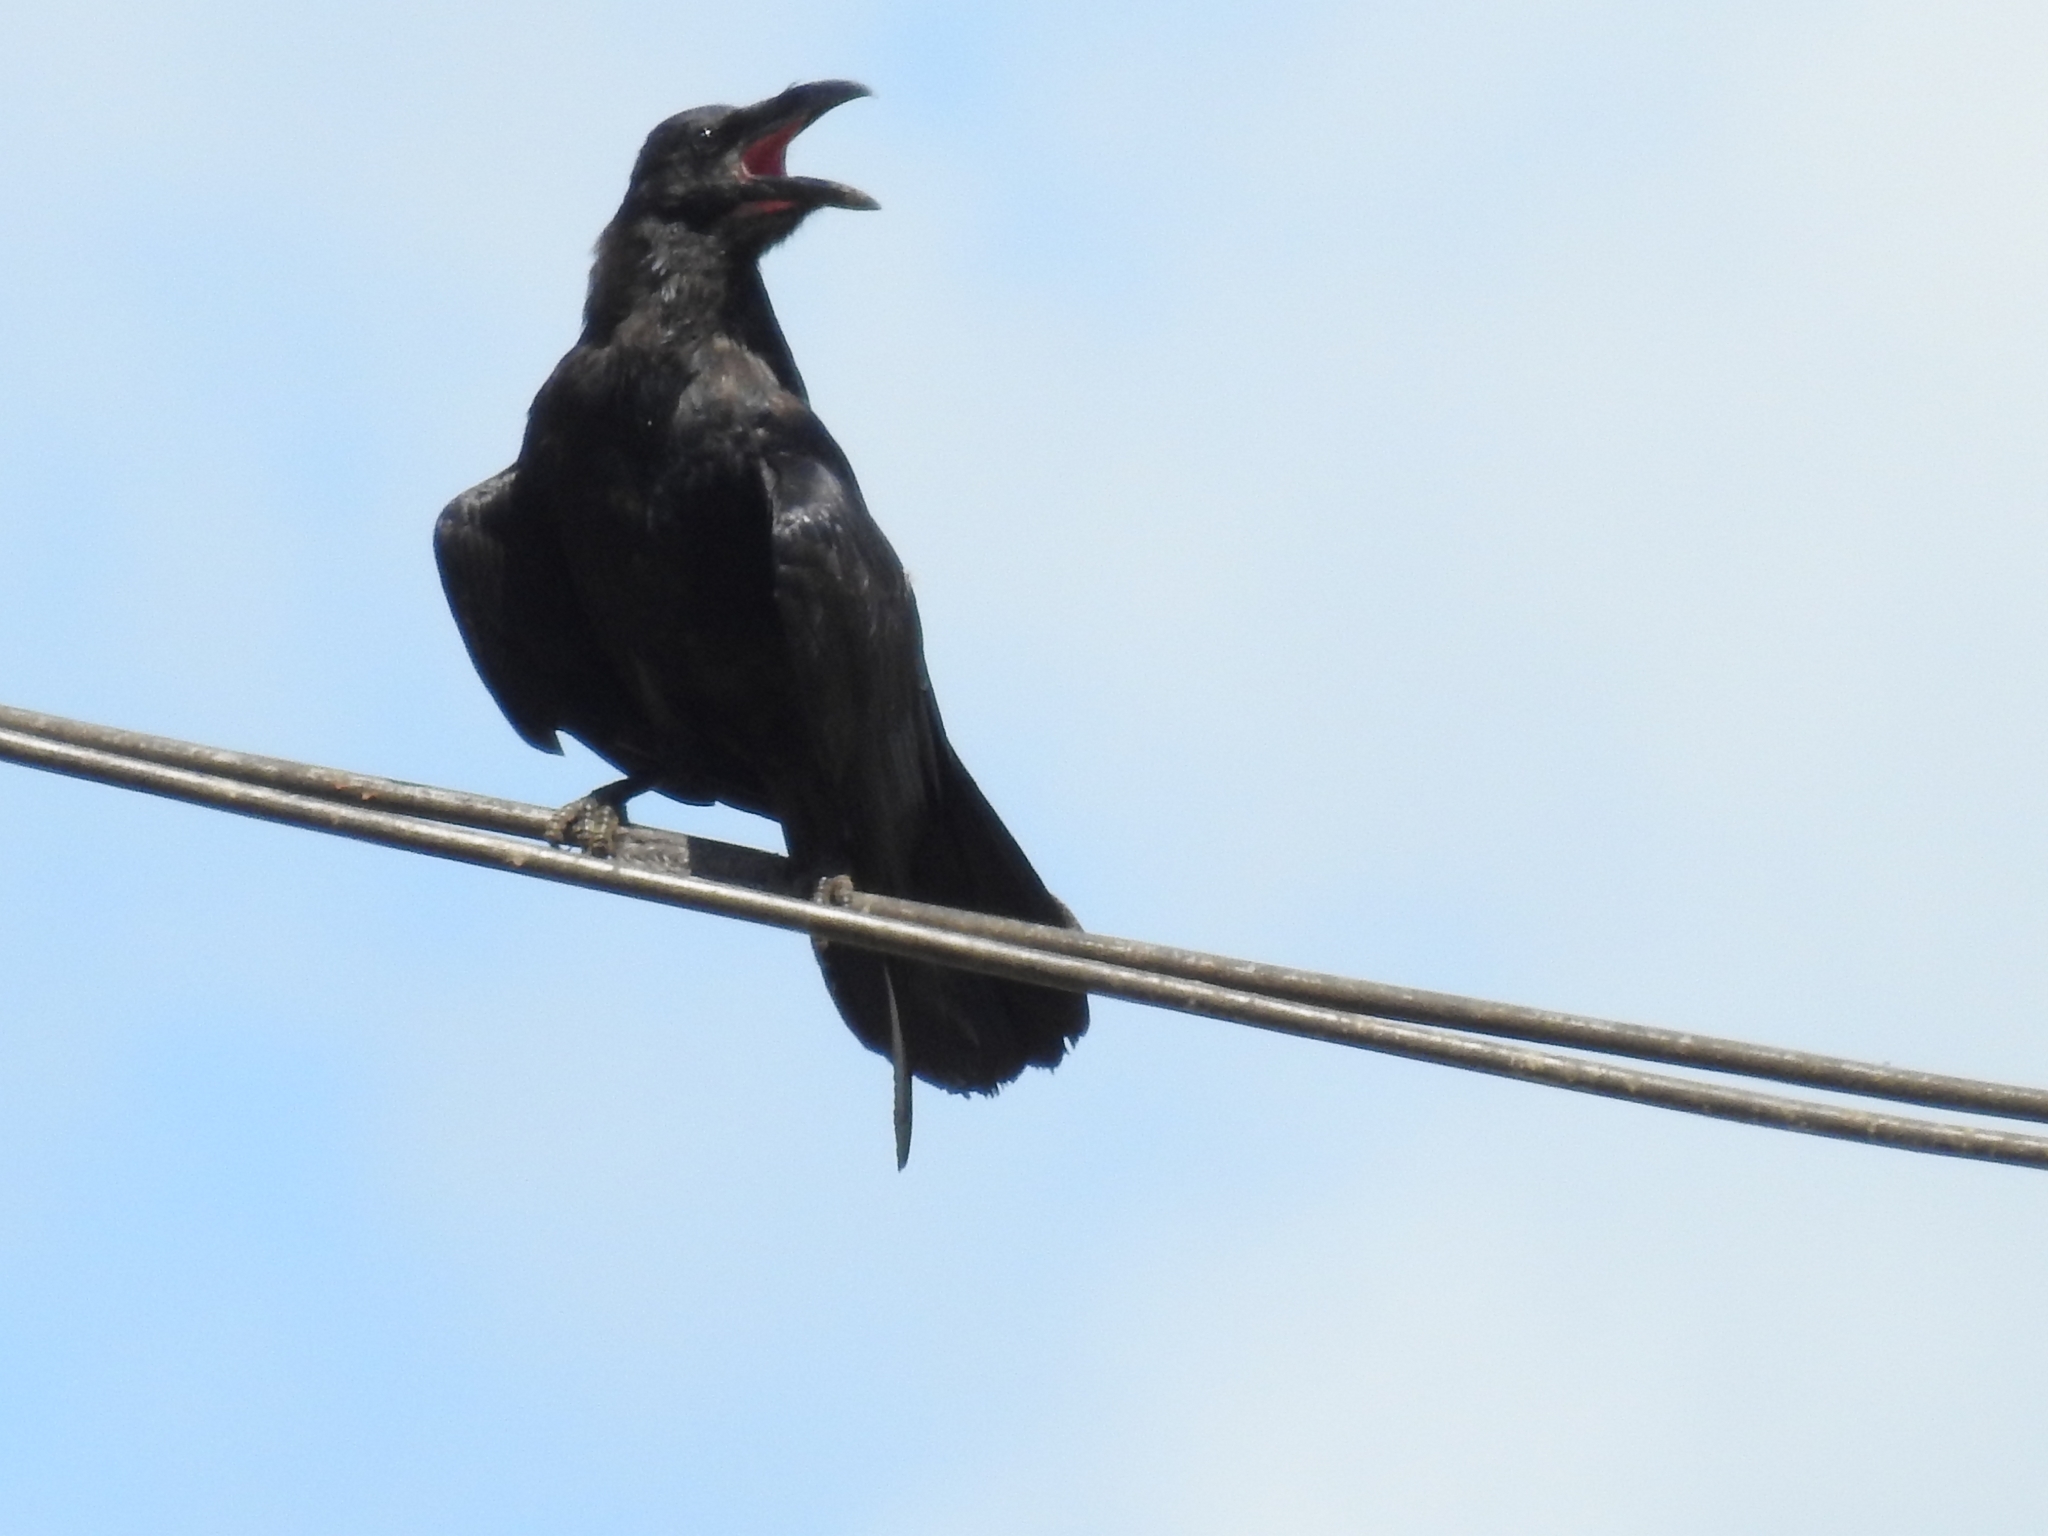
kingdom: Animalia
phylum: Chordata
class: Aves
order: Passeriformes
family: Corvidae
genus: Corvus
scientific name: Corvus corax
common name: Common raven
